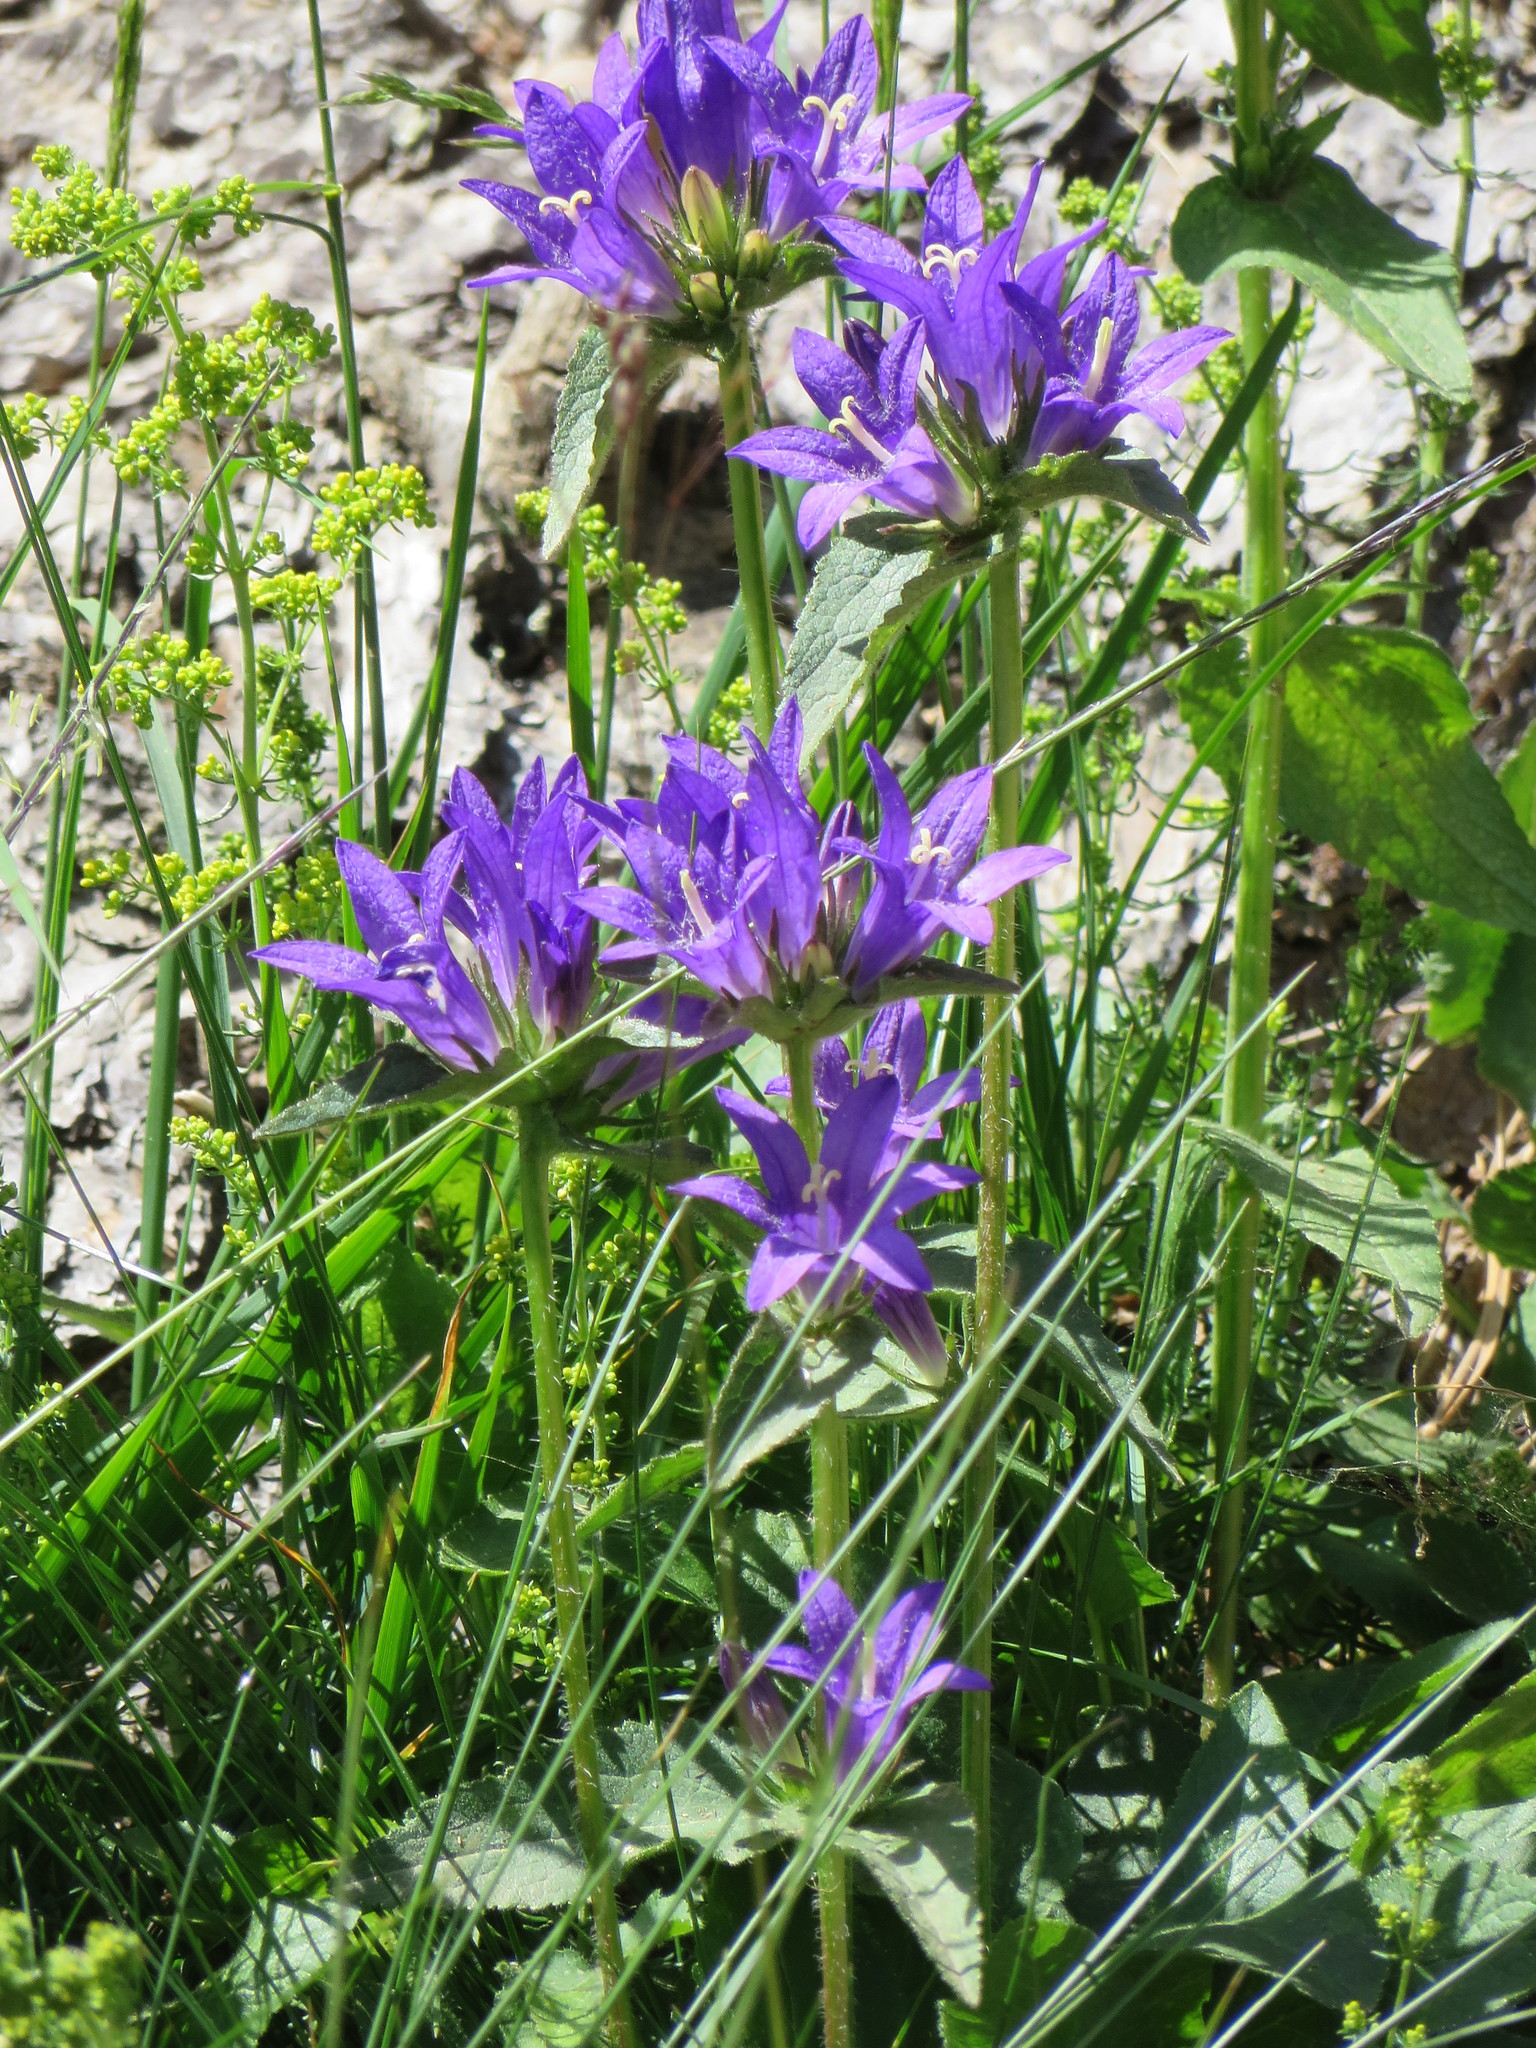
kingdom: Plantae
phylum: Tracheophyta
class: Magnoliopsida
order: Asterales
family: Campanulaceae
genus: Campanula
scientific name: Campanula glomerata
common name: Clustered bellflower
